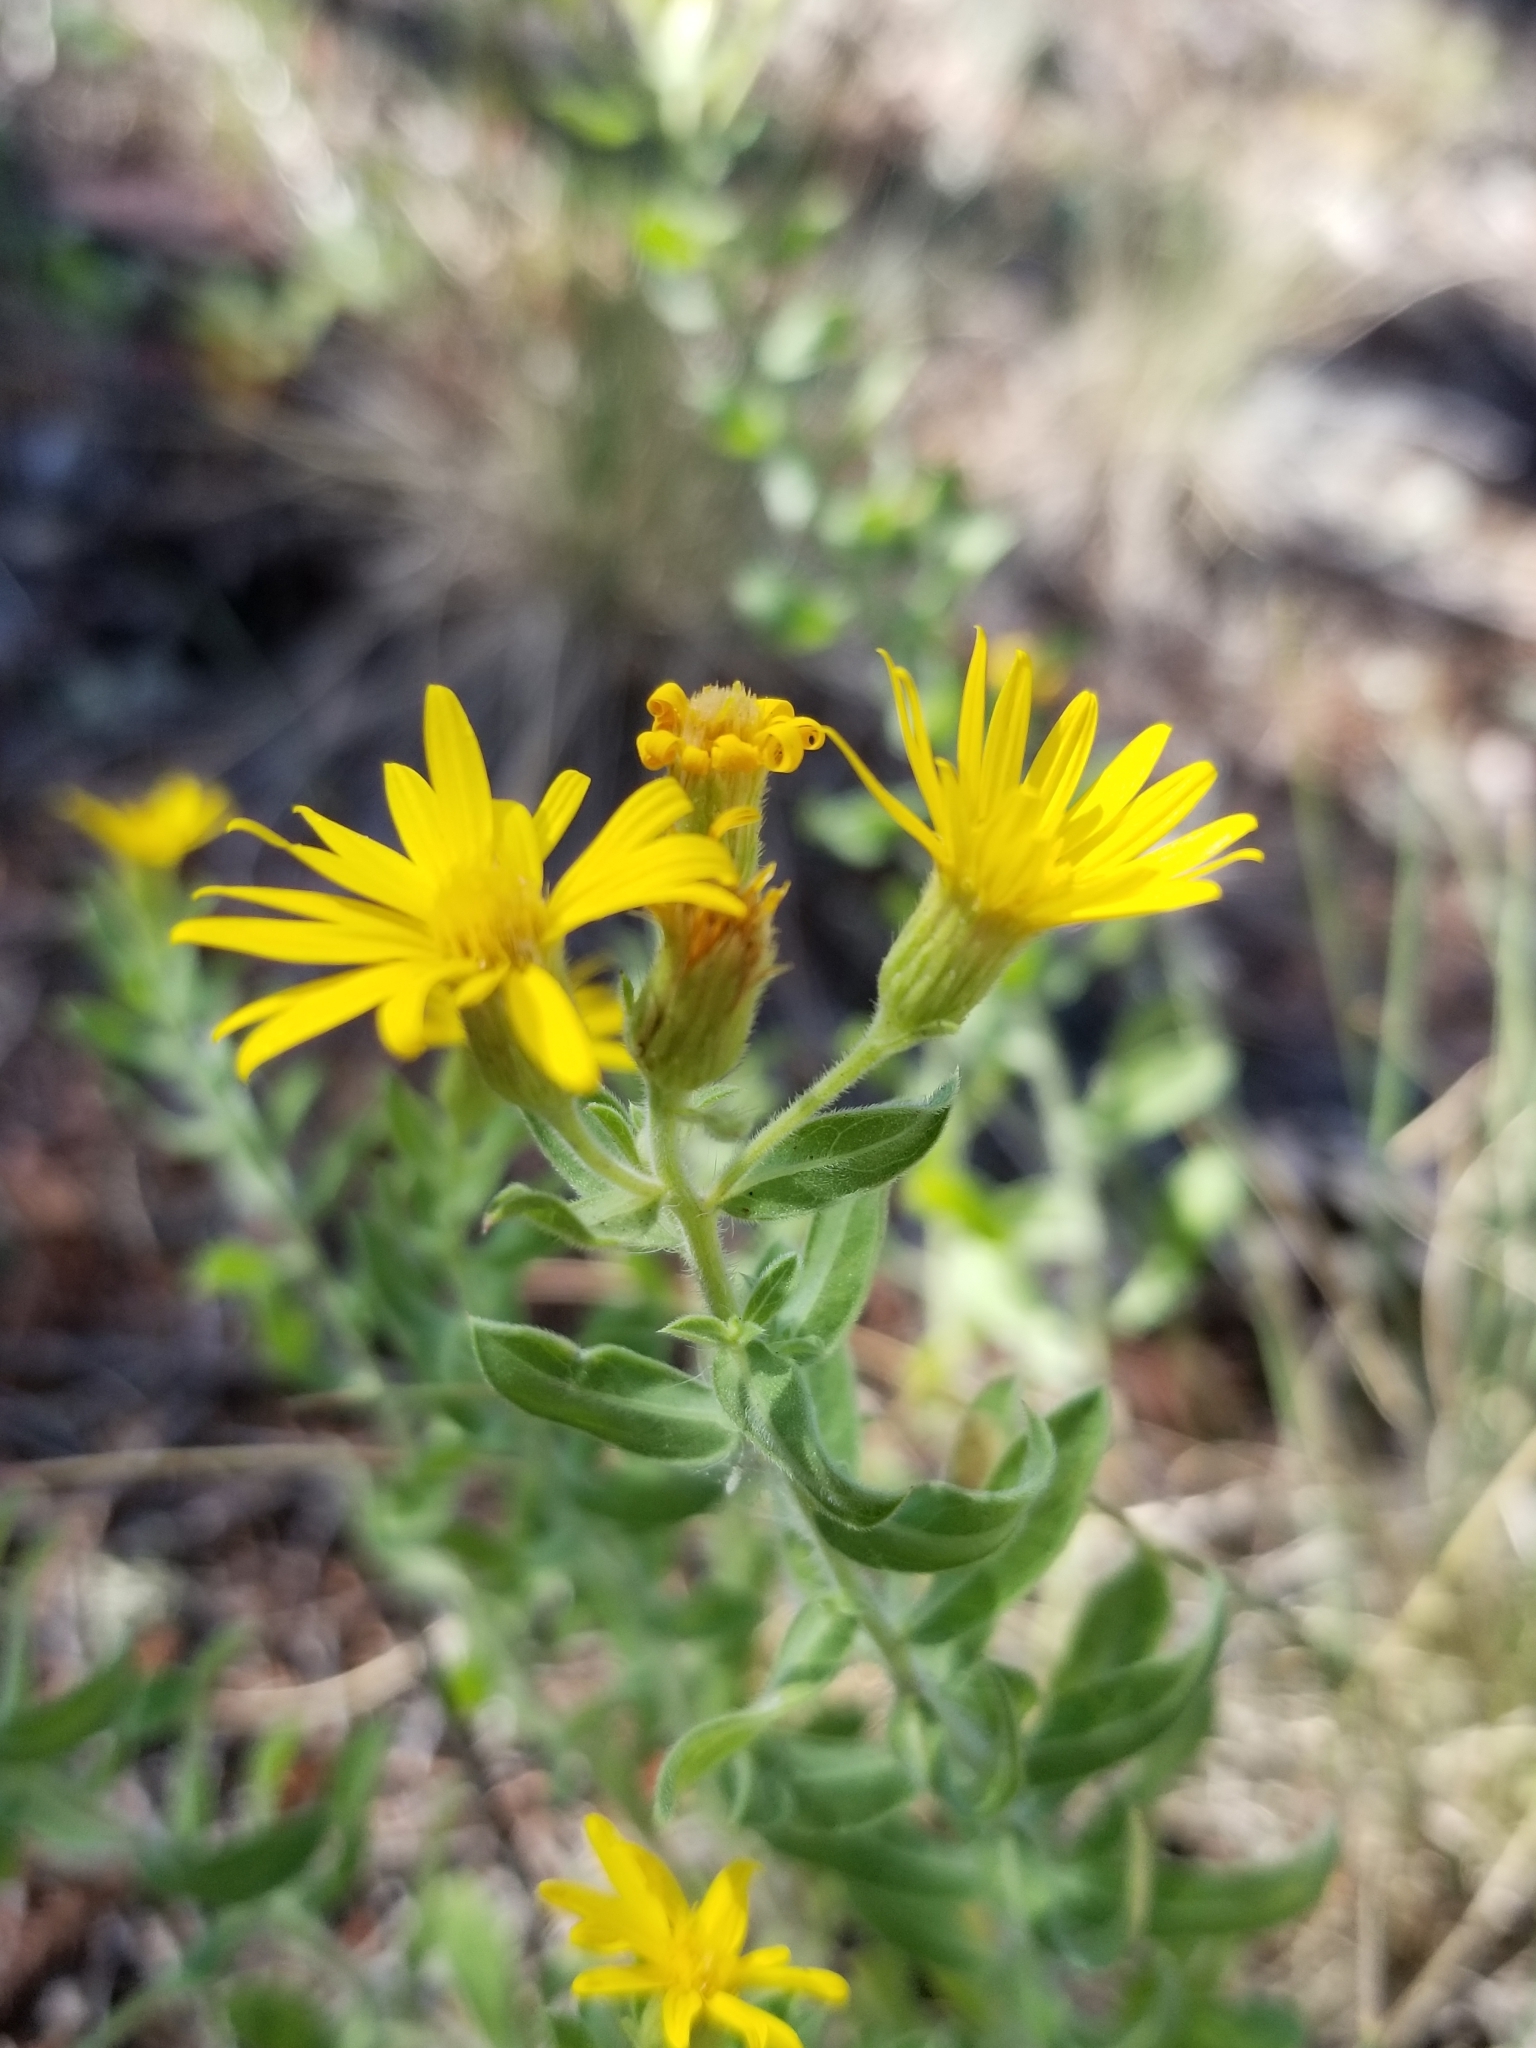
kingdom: Plantae
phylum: Tracheophyta
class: Magnoliopsida
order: Asterales
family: Asteraceae
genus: Heterotheca
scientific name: Heterotheca villosa
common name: Hairy false goldenaster
